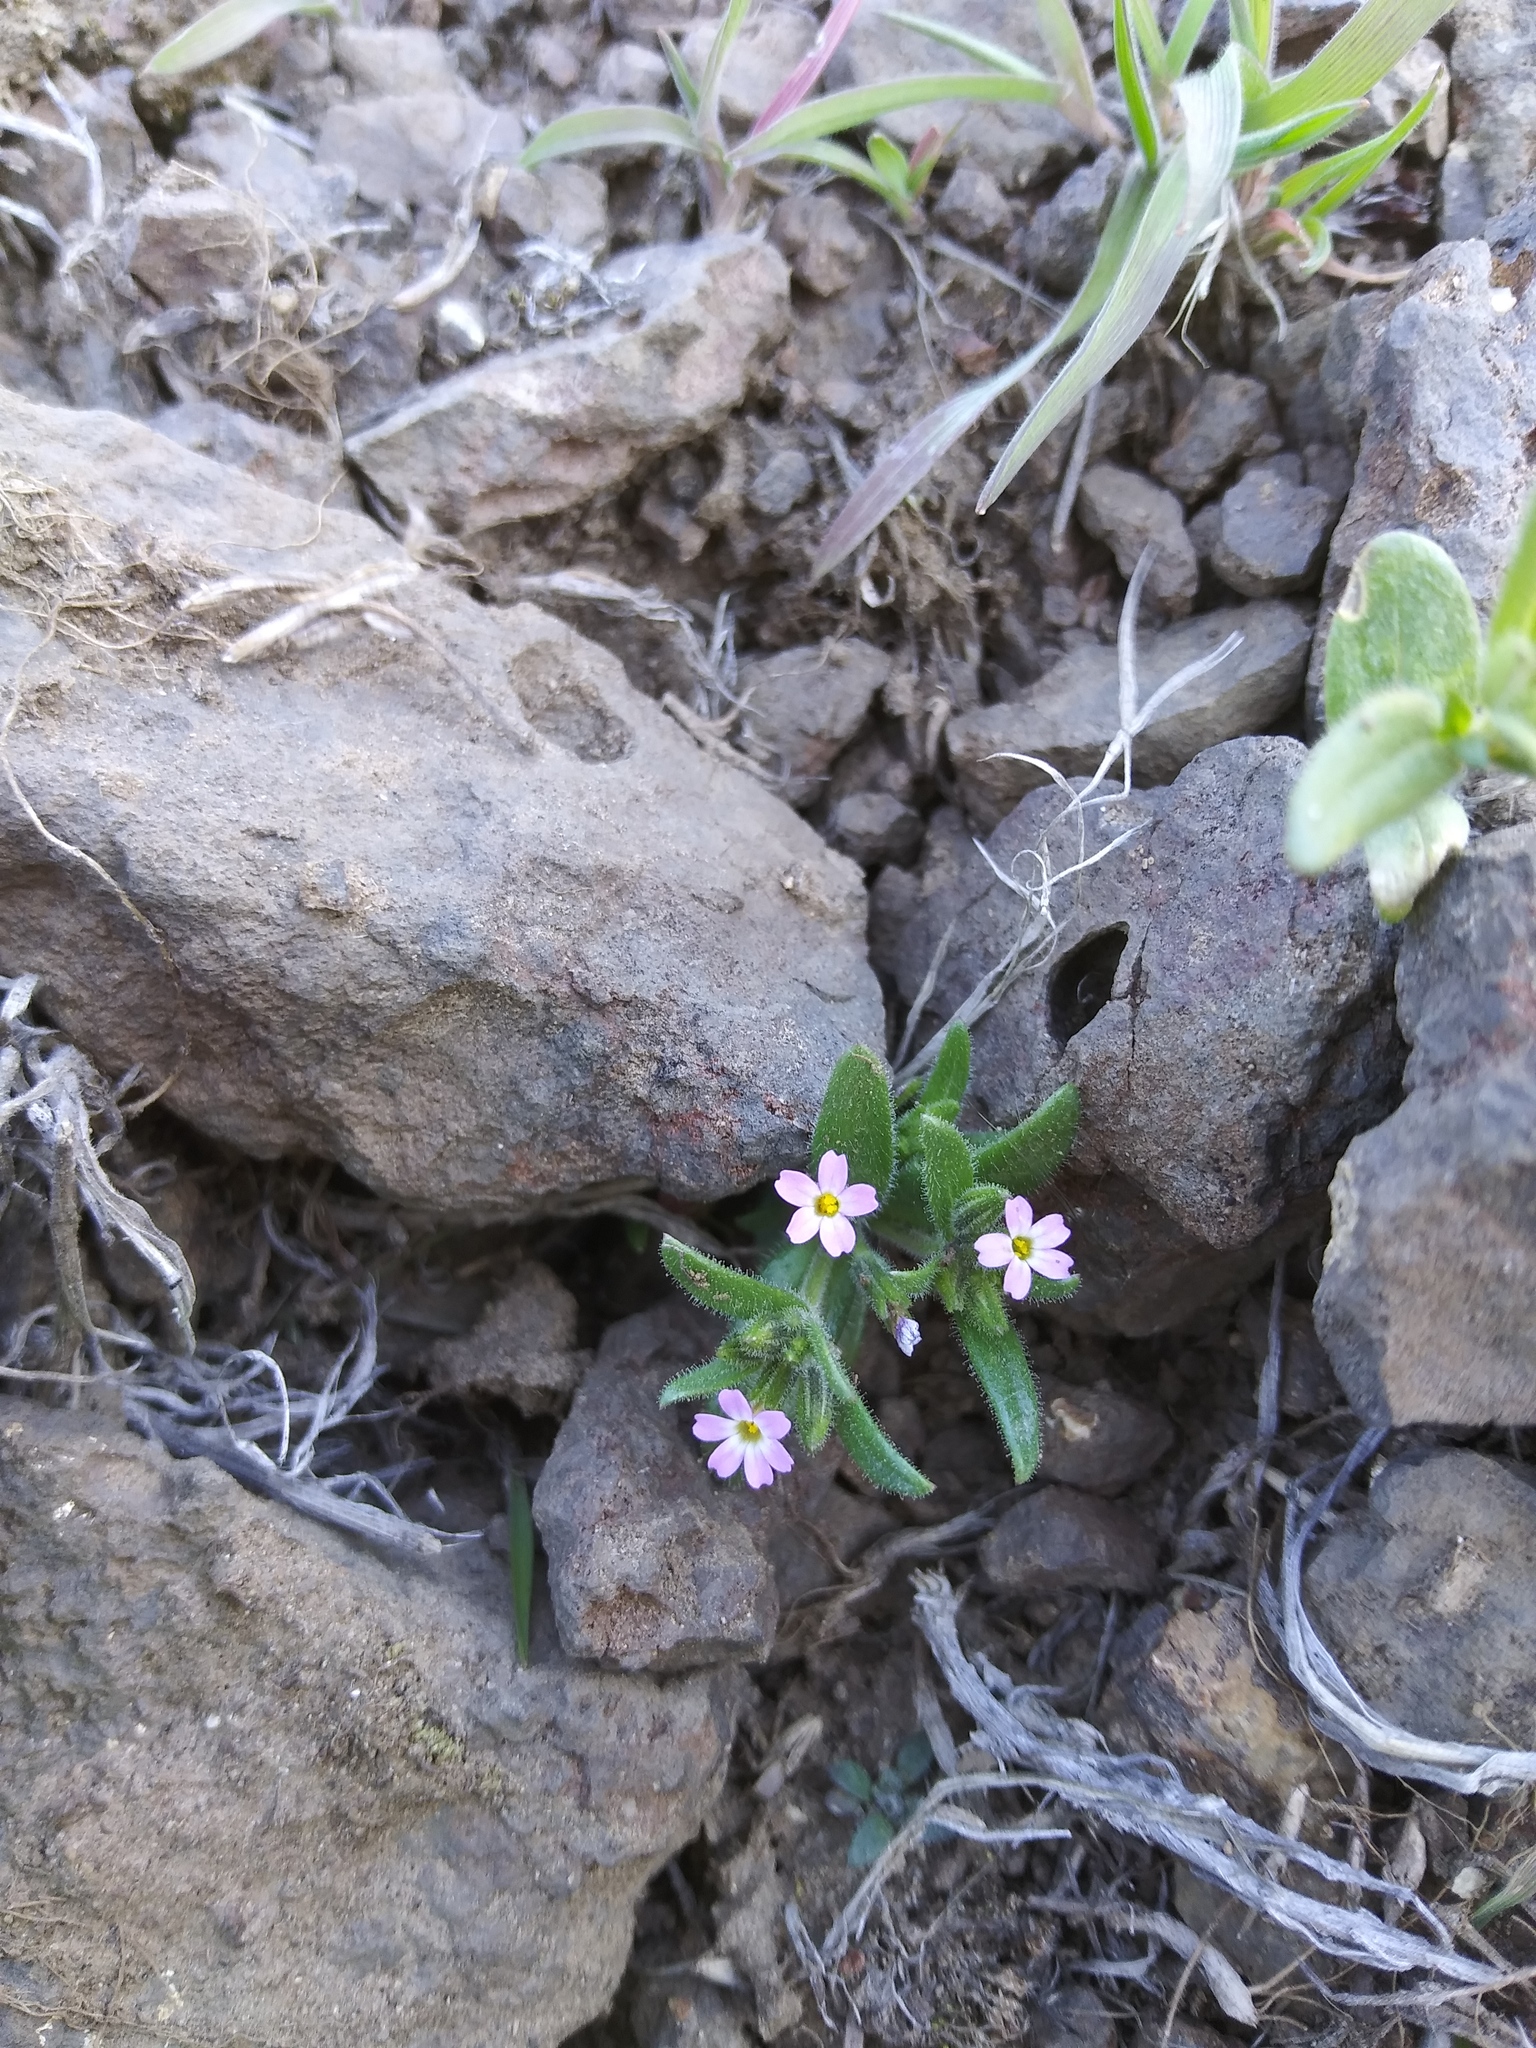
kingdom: Plantae
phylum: Tracheophyta
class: Magnoliopsida
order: Ericales
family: Polemoniaceae
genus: Phlox
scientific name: Phlox gracilis
